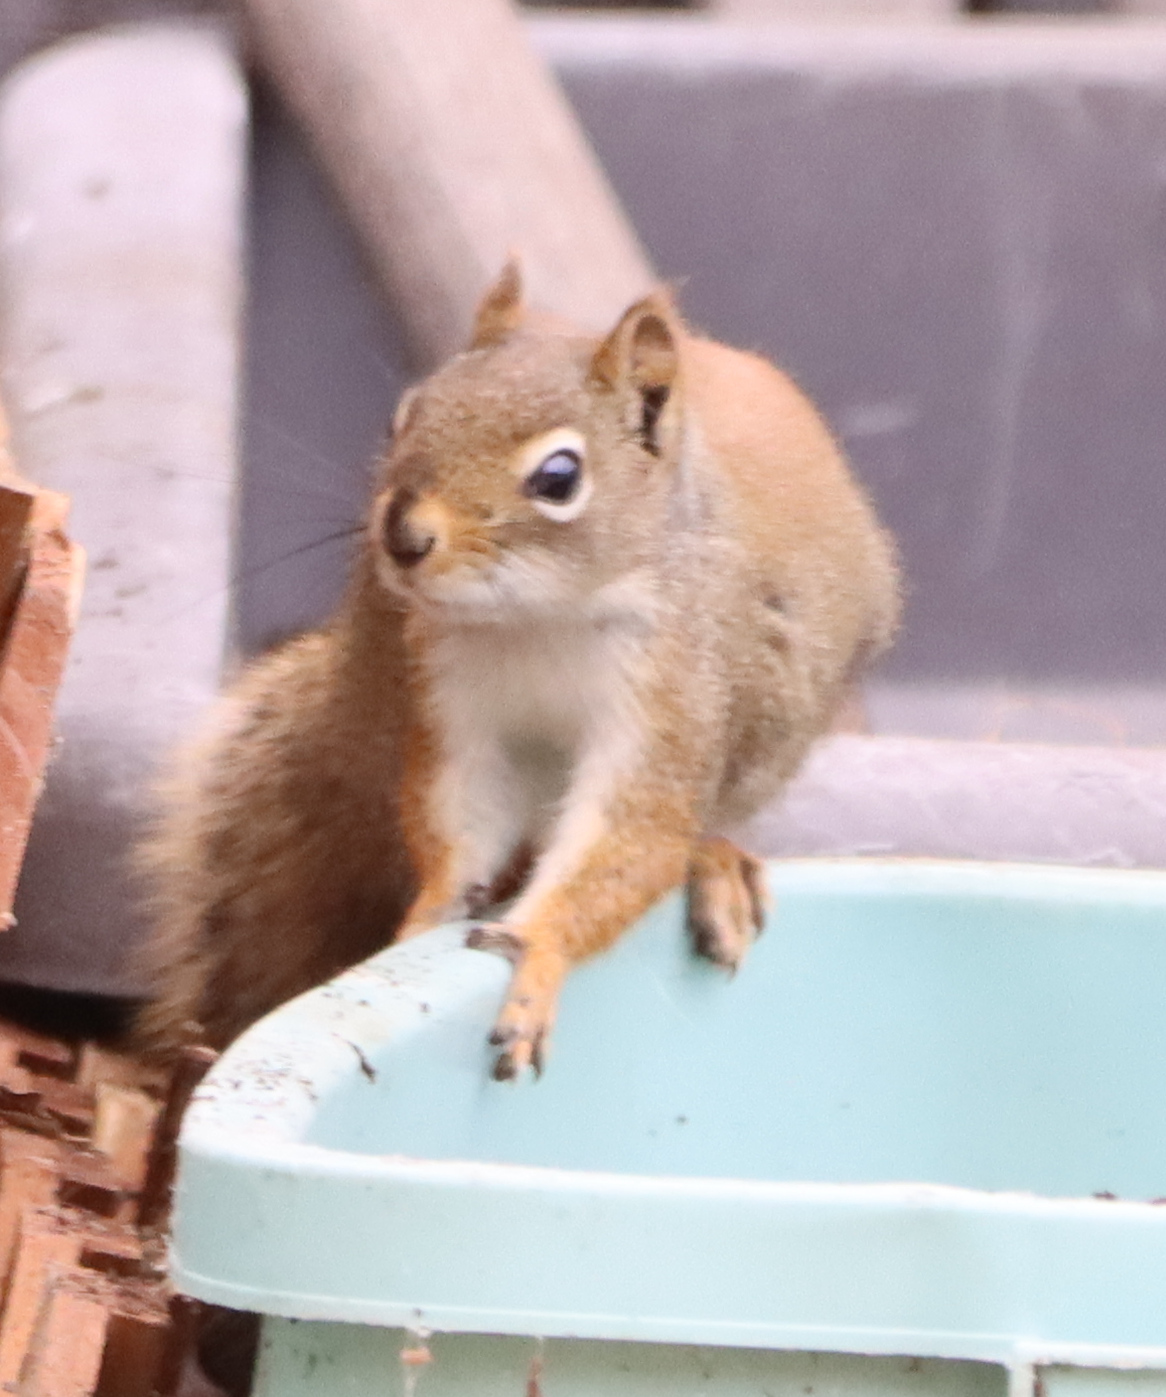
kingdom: Animalia
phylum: Chordata
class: Mammalia
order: Rodentia
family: Sciuridae
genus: Tamiasciurus
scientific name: Tamiasciurus hudsonicus
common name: Red squirrel
